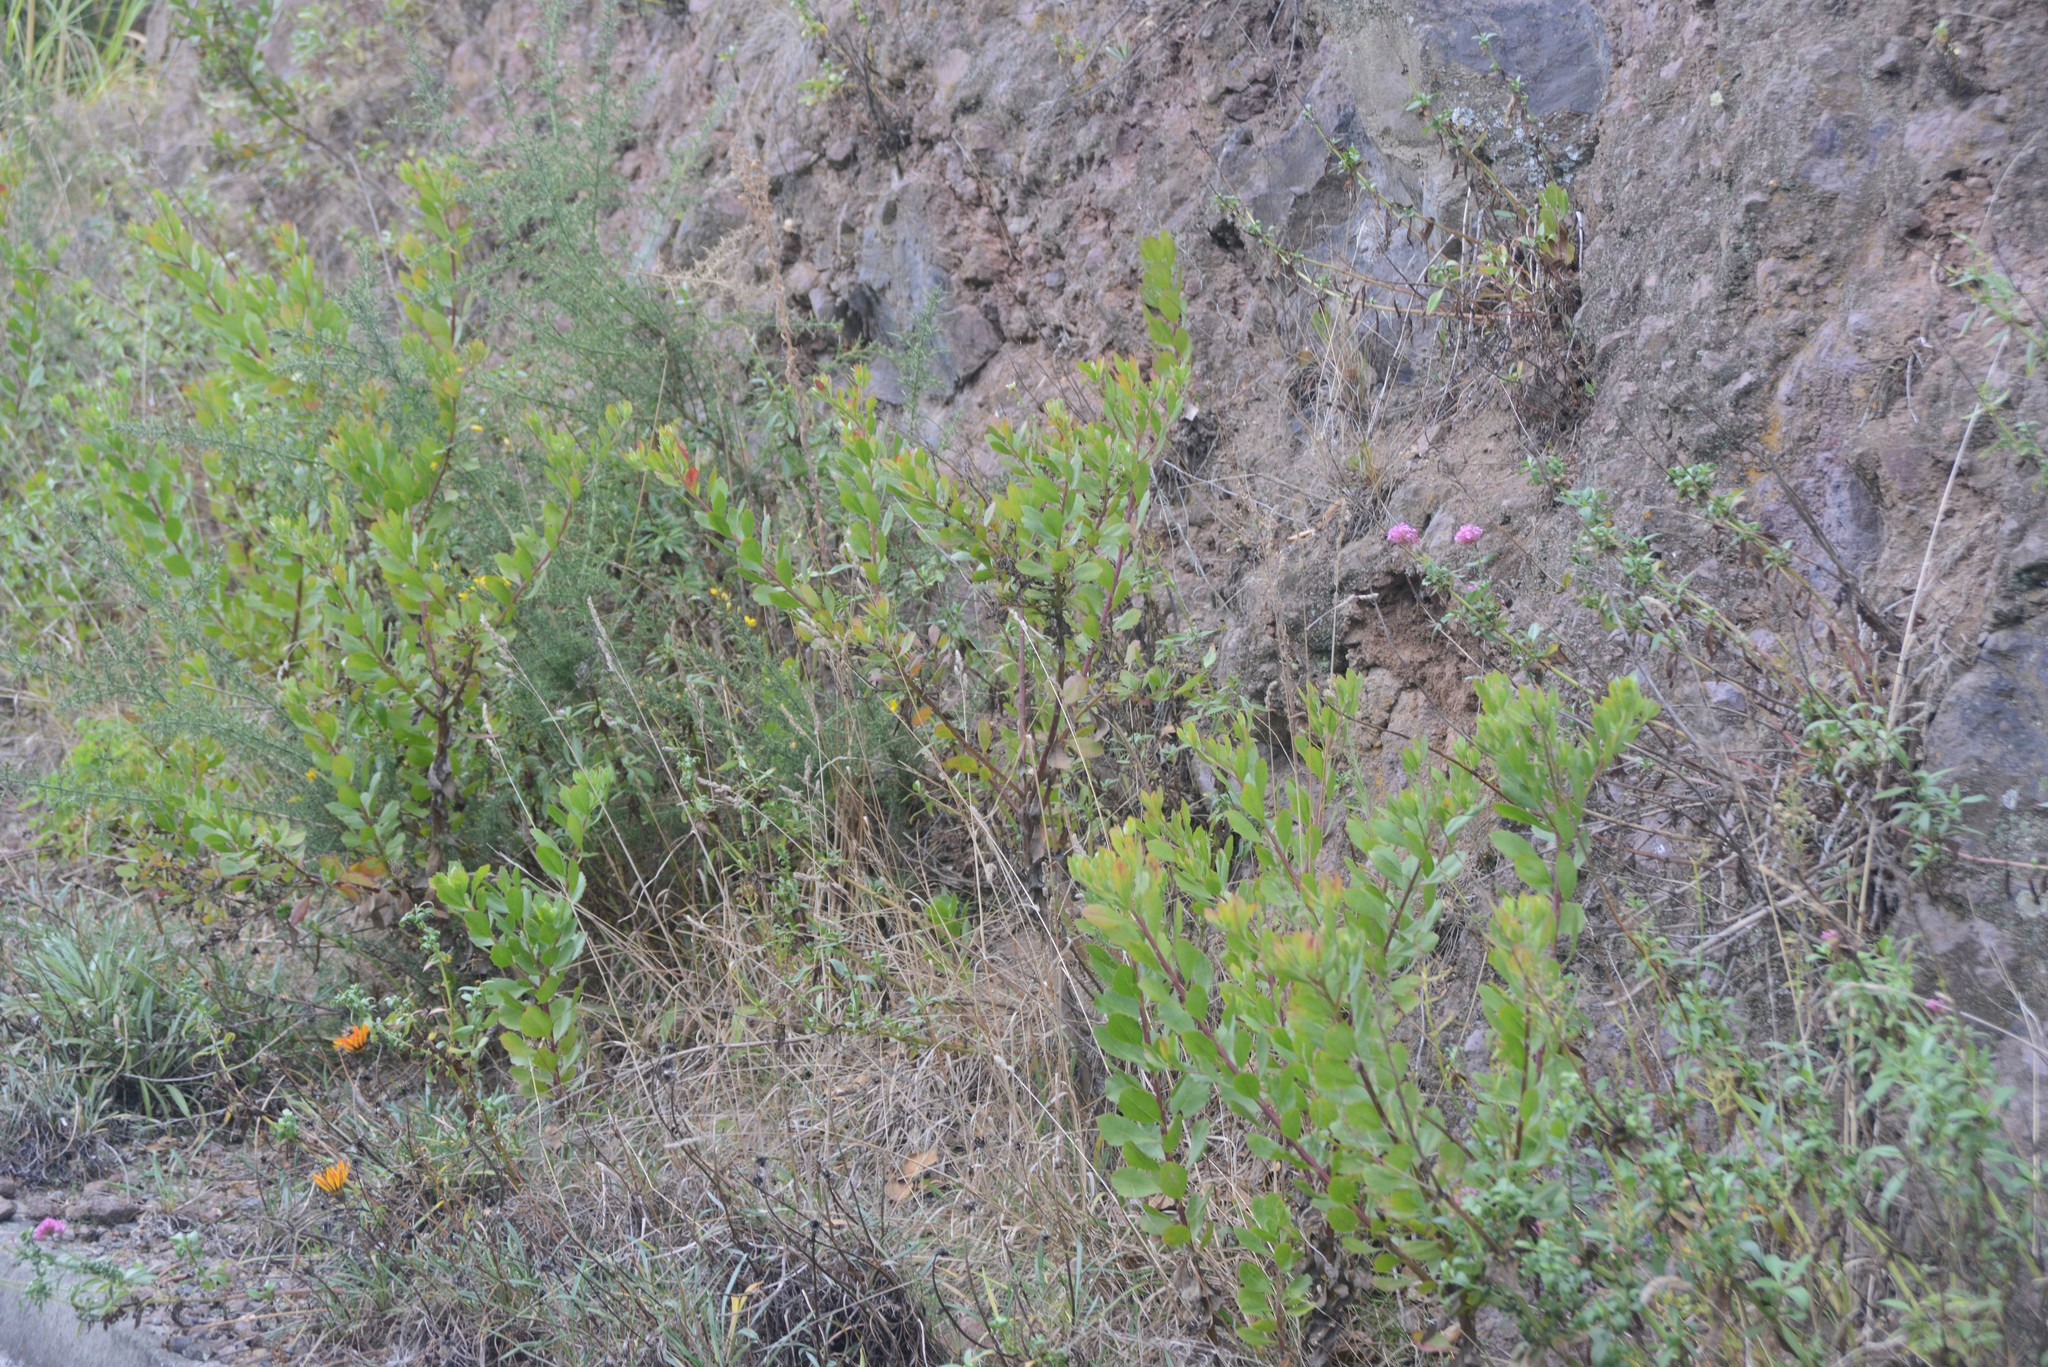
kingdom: Plantae
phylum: Tracheophyta
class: Magnoliopsida
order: Asterales
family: Asteraceae
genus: Osteospermum
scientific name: Osteospermum moniliferum
